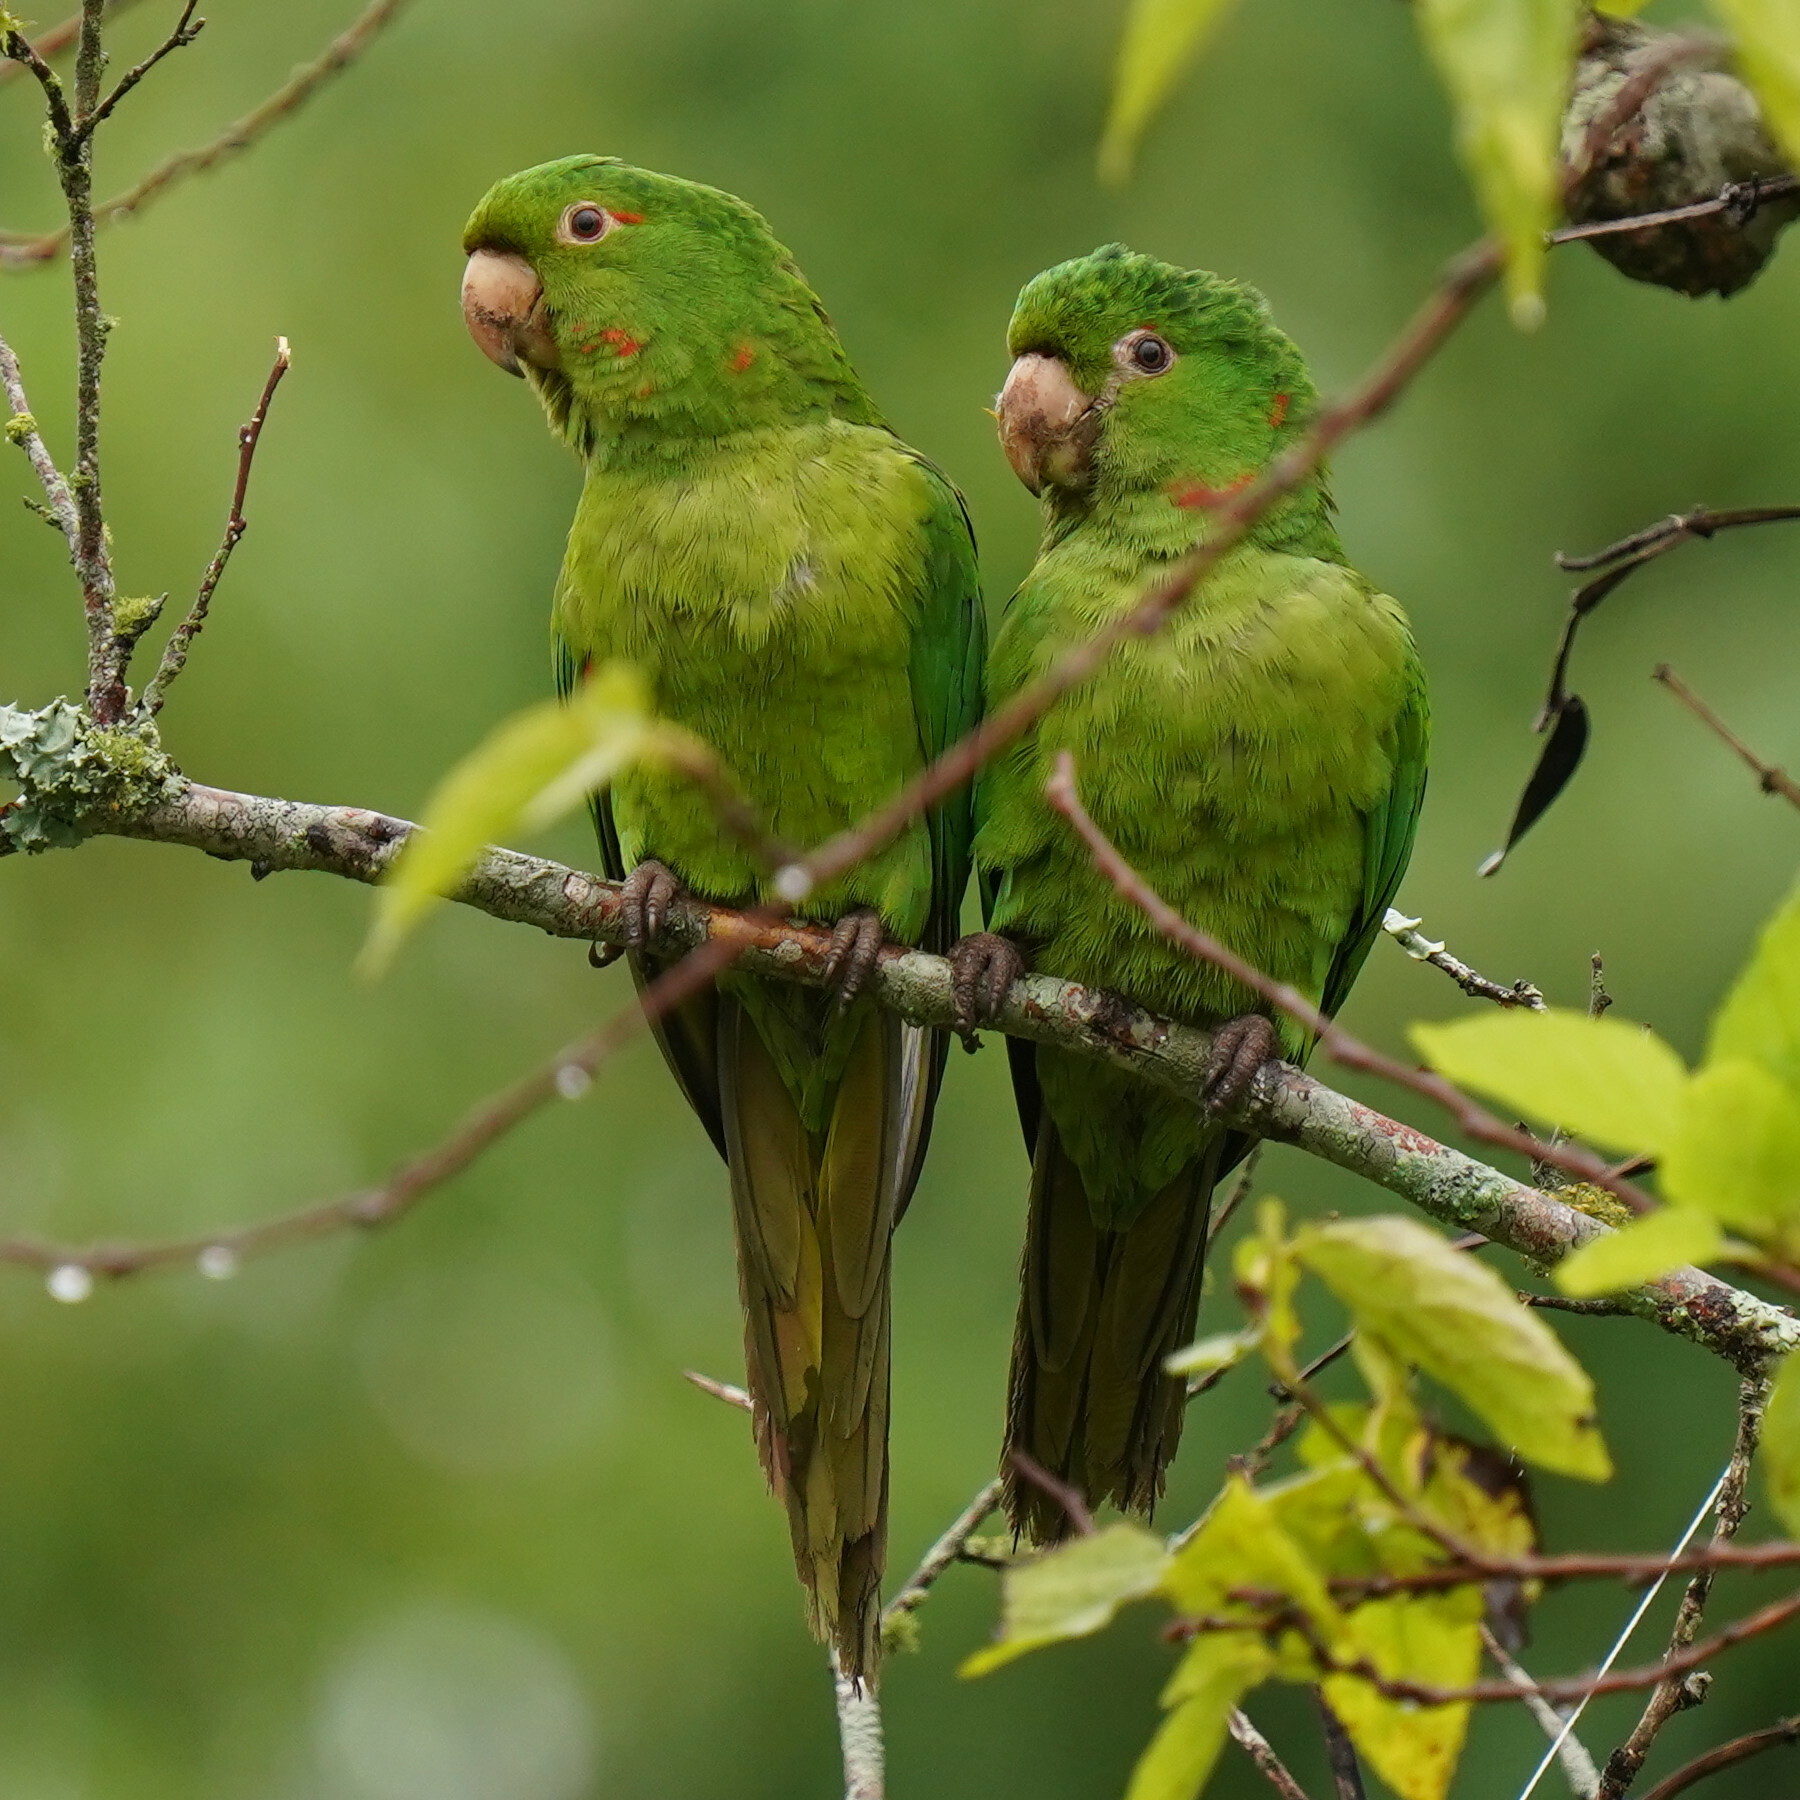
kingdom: Animalia
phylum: Chordata
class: Aves
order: Psittaciformes
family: Psittacidae
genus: Aratinga
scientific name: Aratinga leucophthalma
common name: White-eyed parakeet
